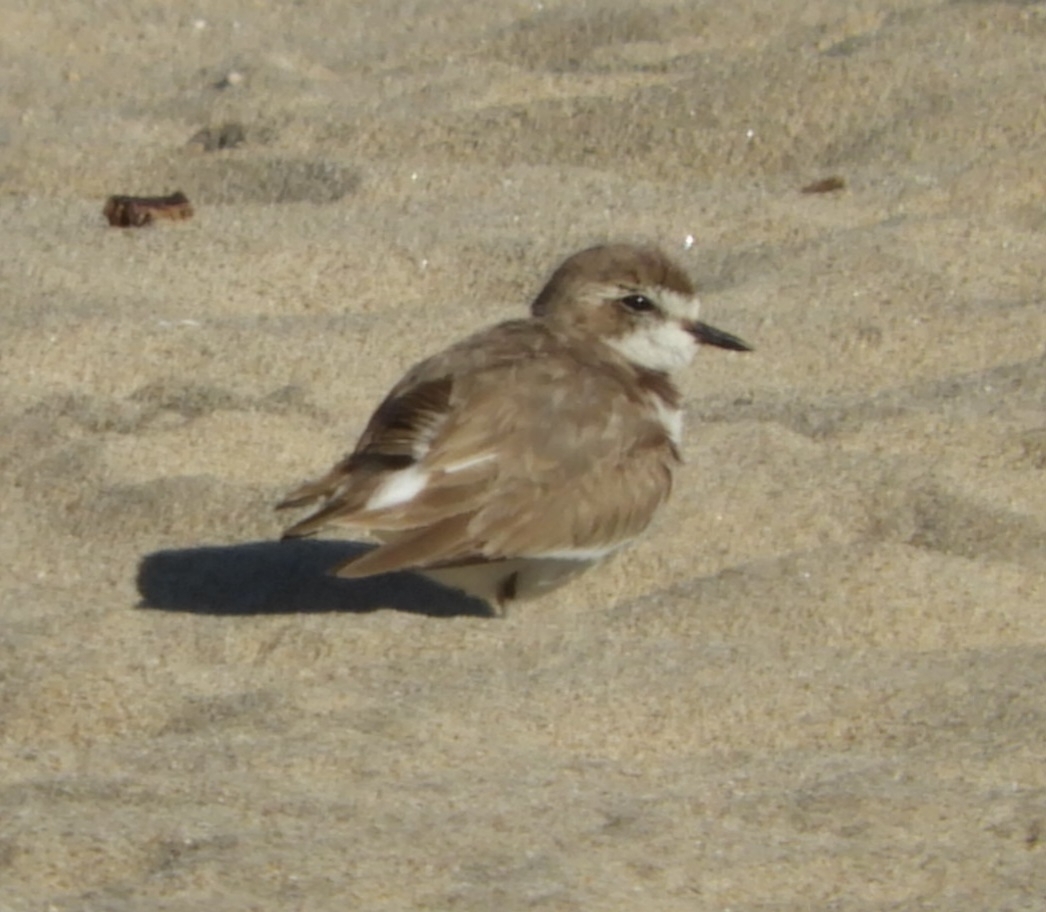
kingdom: Animalia
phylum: Chordata
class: Aves
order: Charadriiformes
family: Charadriidae
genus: Anarhynchus
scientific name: Anarhynchus
